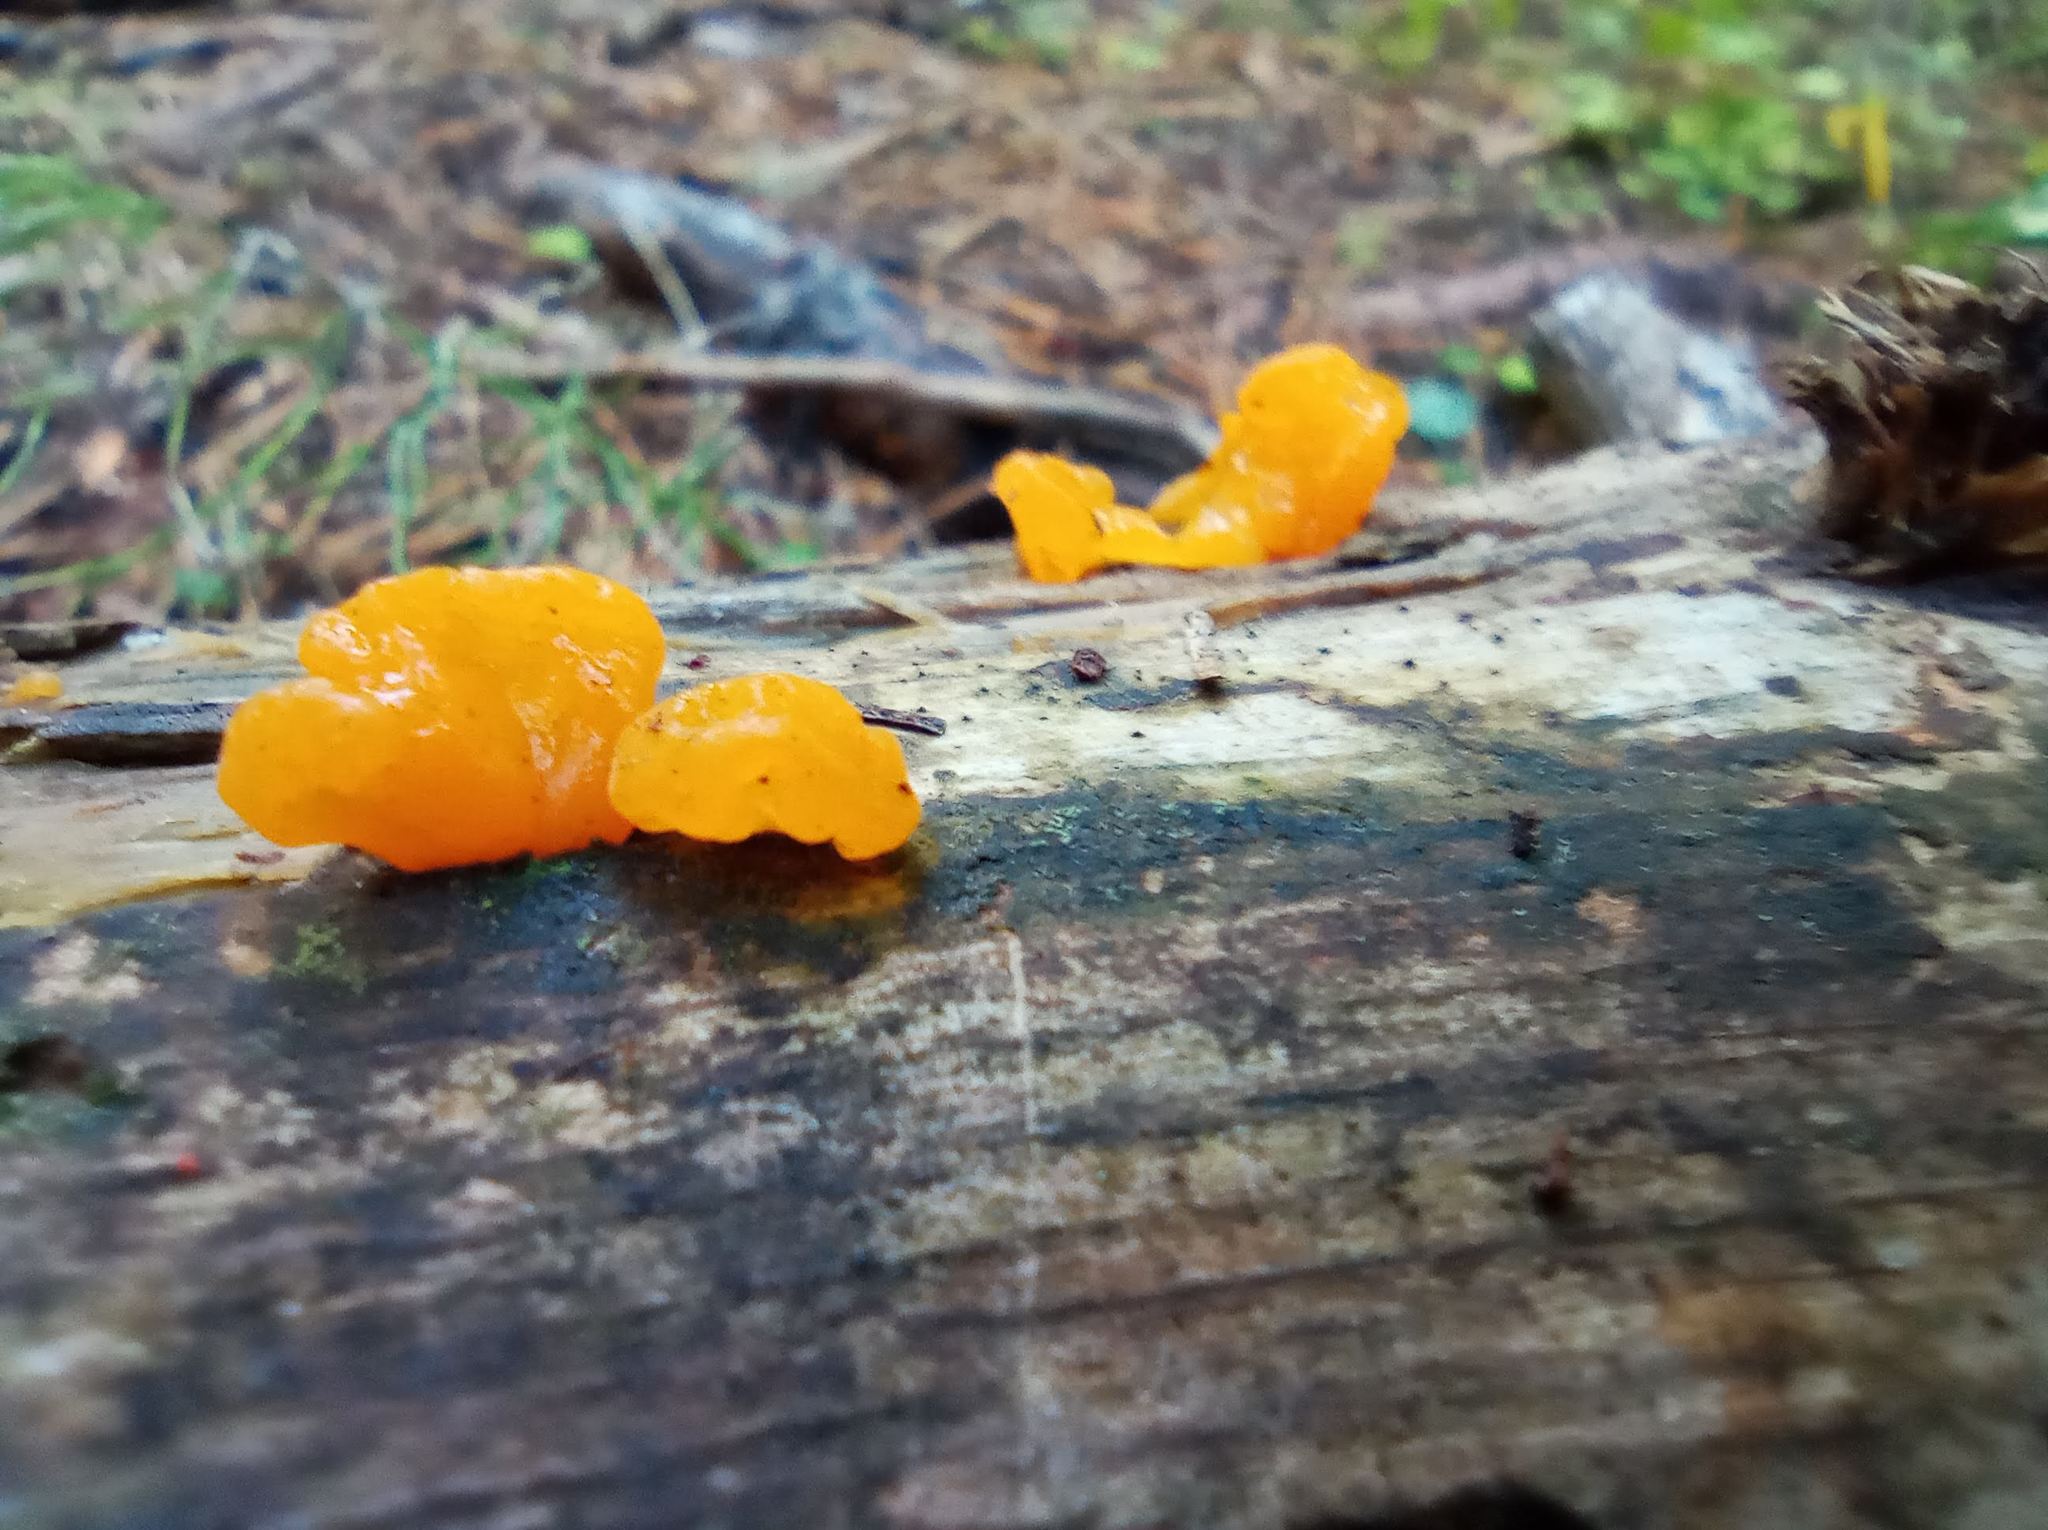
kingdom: Fungi
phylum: Basidiomycota
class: Dacrymycetes
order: Dacrymycetales
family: Dacrymycetaceae
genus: Dacrymyces
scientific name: Dacrymyces chrysospermus
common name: Orange jelly spot
